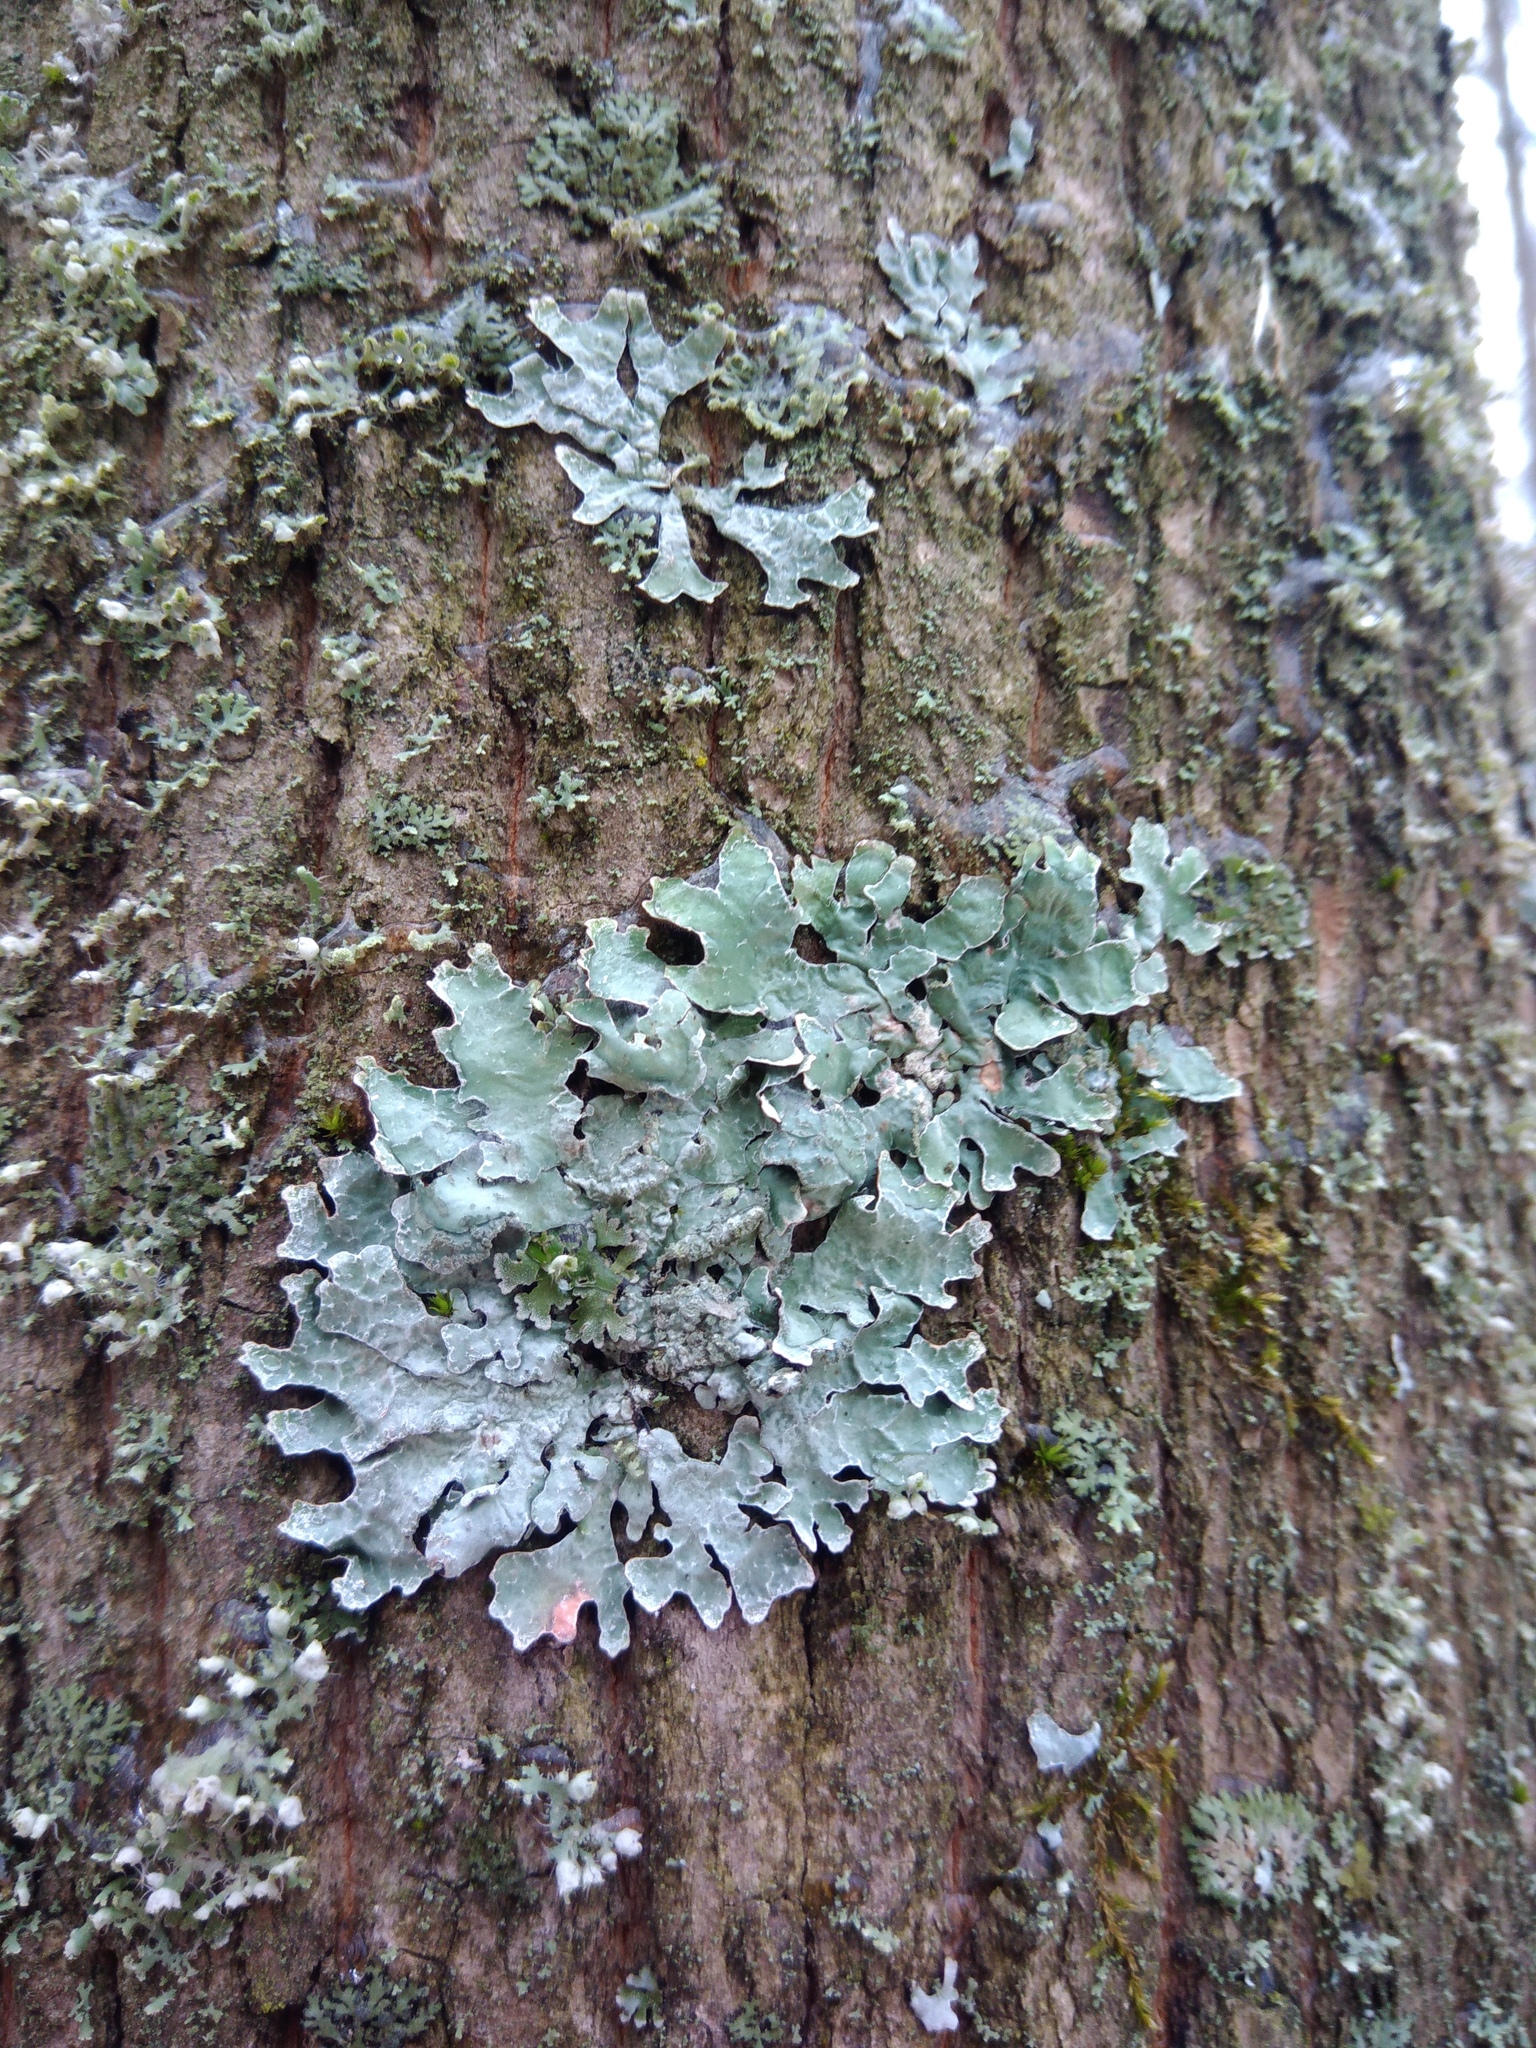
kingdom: Fungi
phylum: Ascomycota
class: Lecanoromycetes
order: Lecanorales
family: Parmeliaceae
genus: Parmelia
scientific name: Parmelia sulcata
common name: Netted shield lichen
